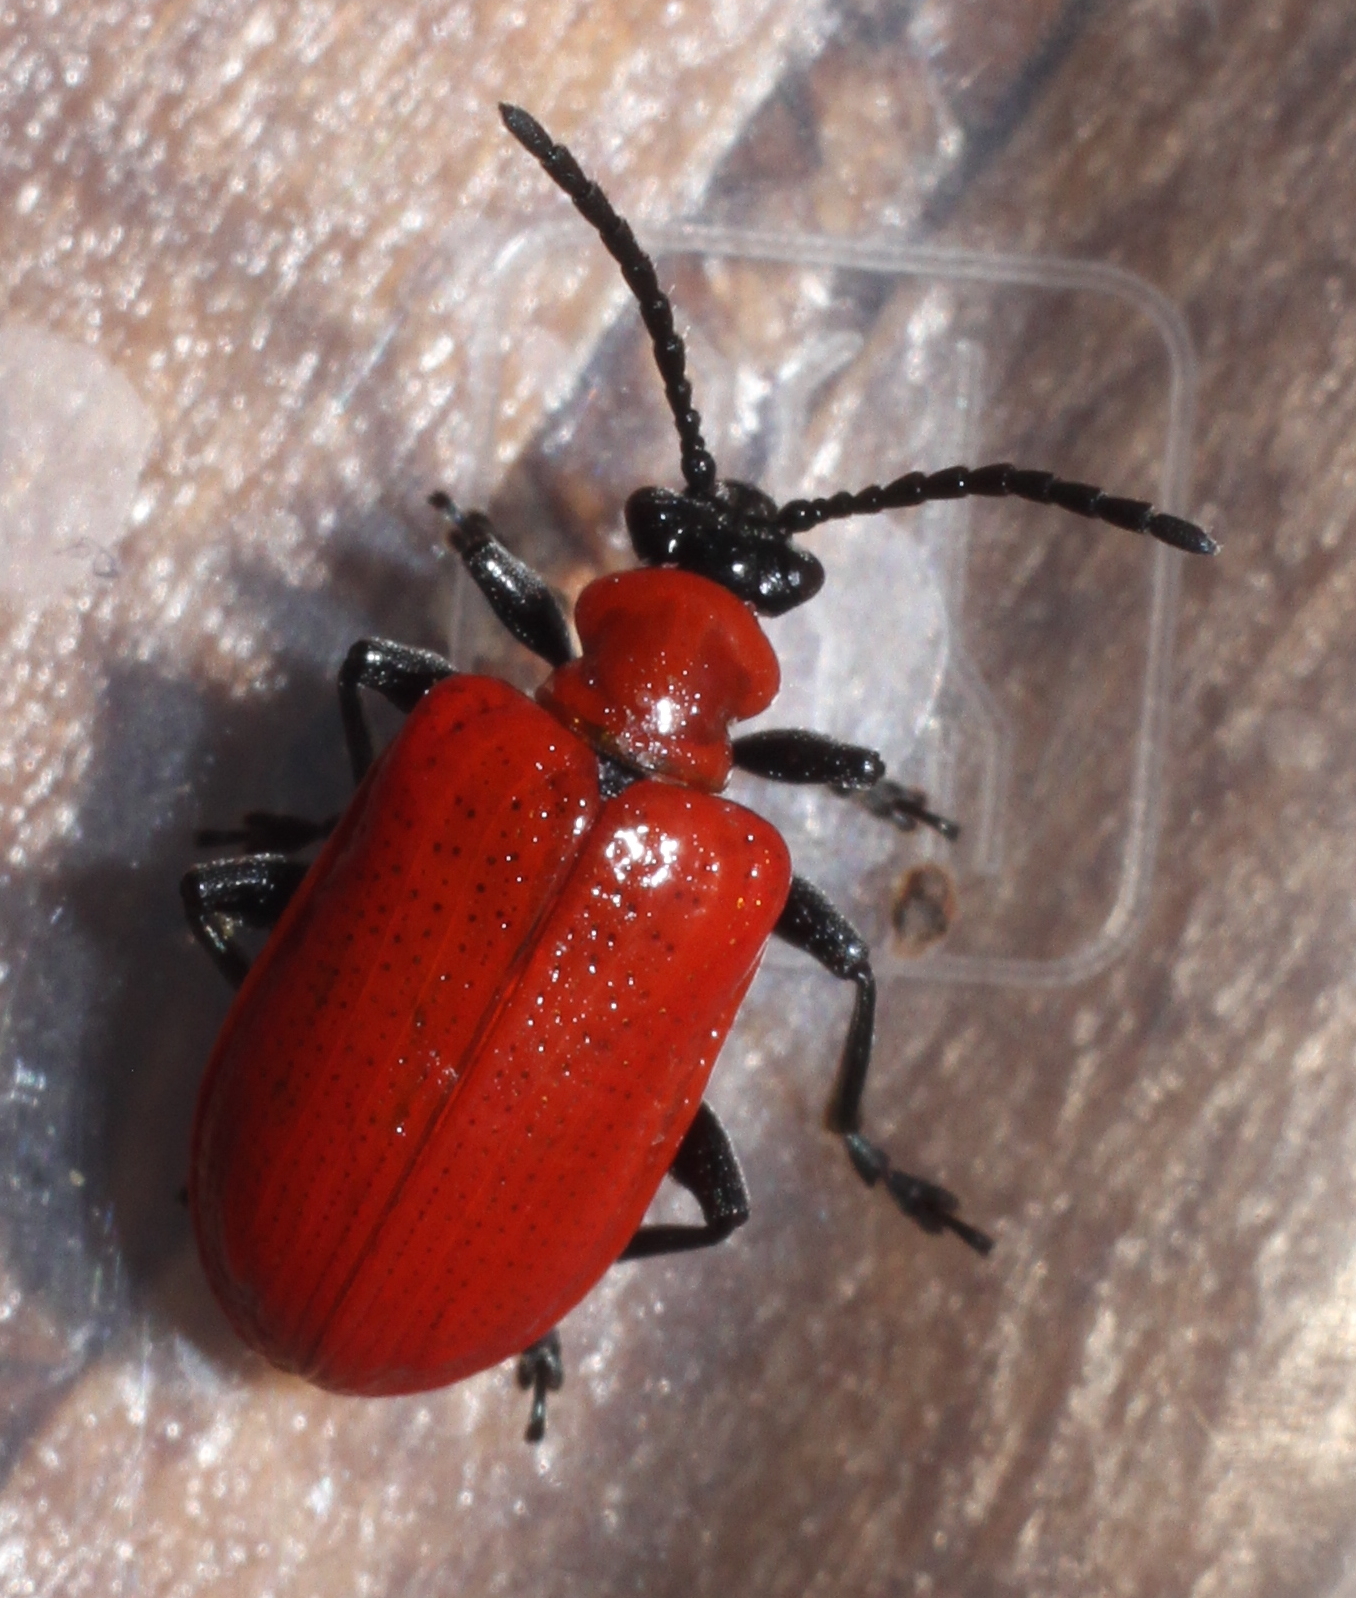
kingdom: Animalia
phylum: Arthropoda
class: Insecta
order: Coleoptera
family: Chrysomelidae
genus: Lilioceris
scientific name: Lilioceris lilii
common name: Lily beetle
